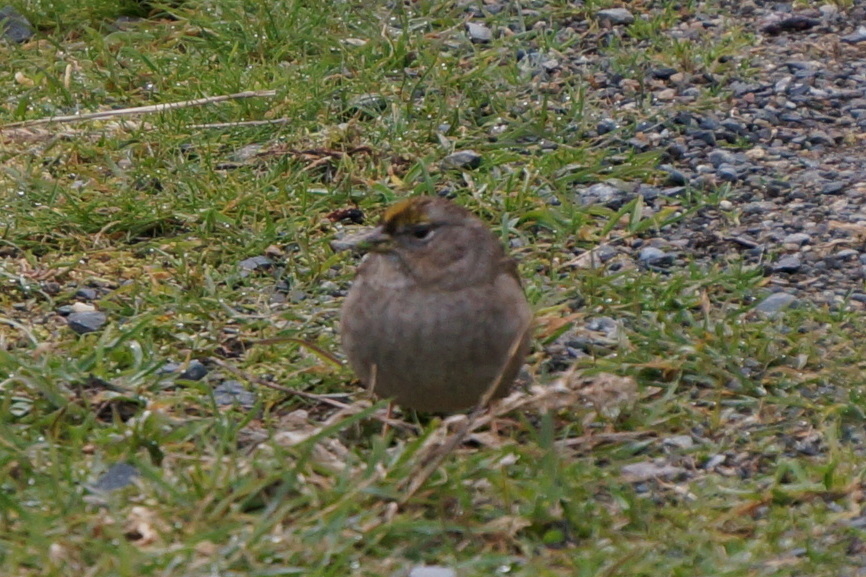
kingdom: Animalia
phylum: Chordata
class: Aves
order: Passeriformes
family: Passerellidae
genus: Zonotrichia
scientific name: Zonotrichia atricapilla
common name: Golden-crowned sparrow
